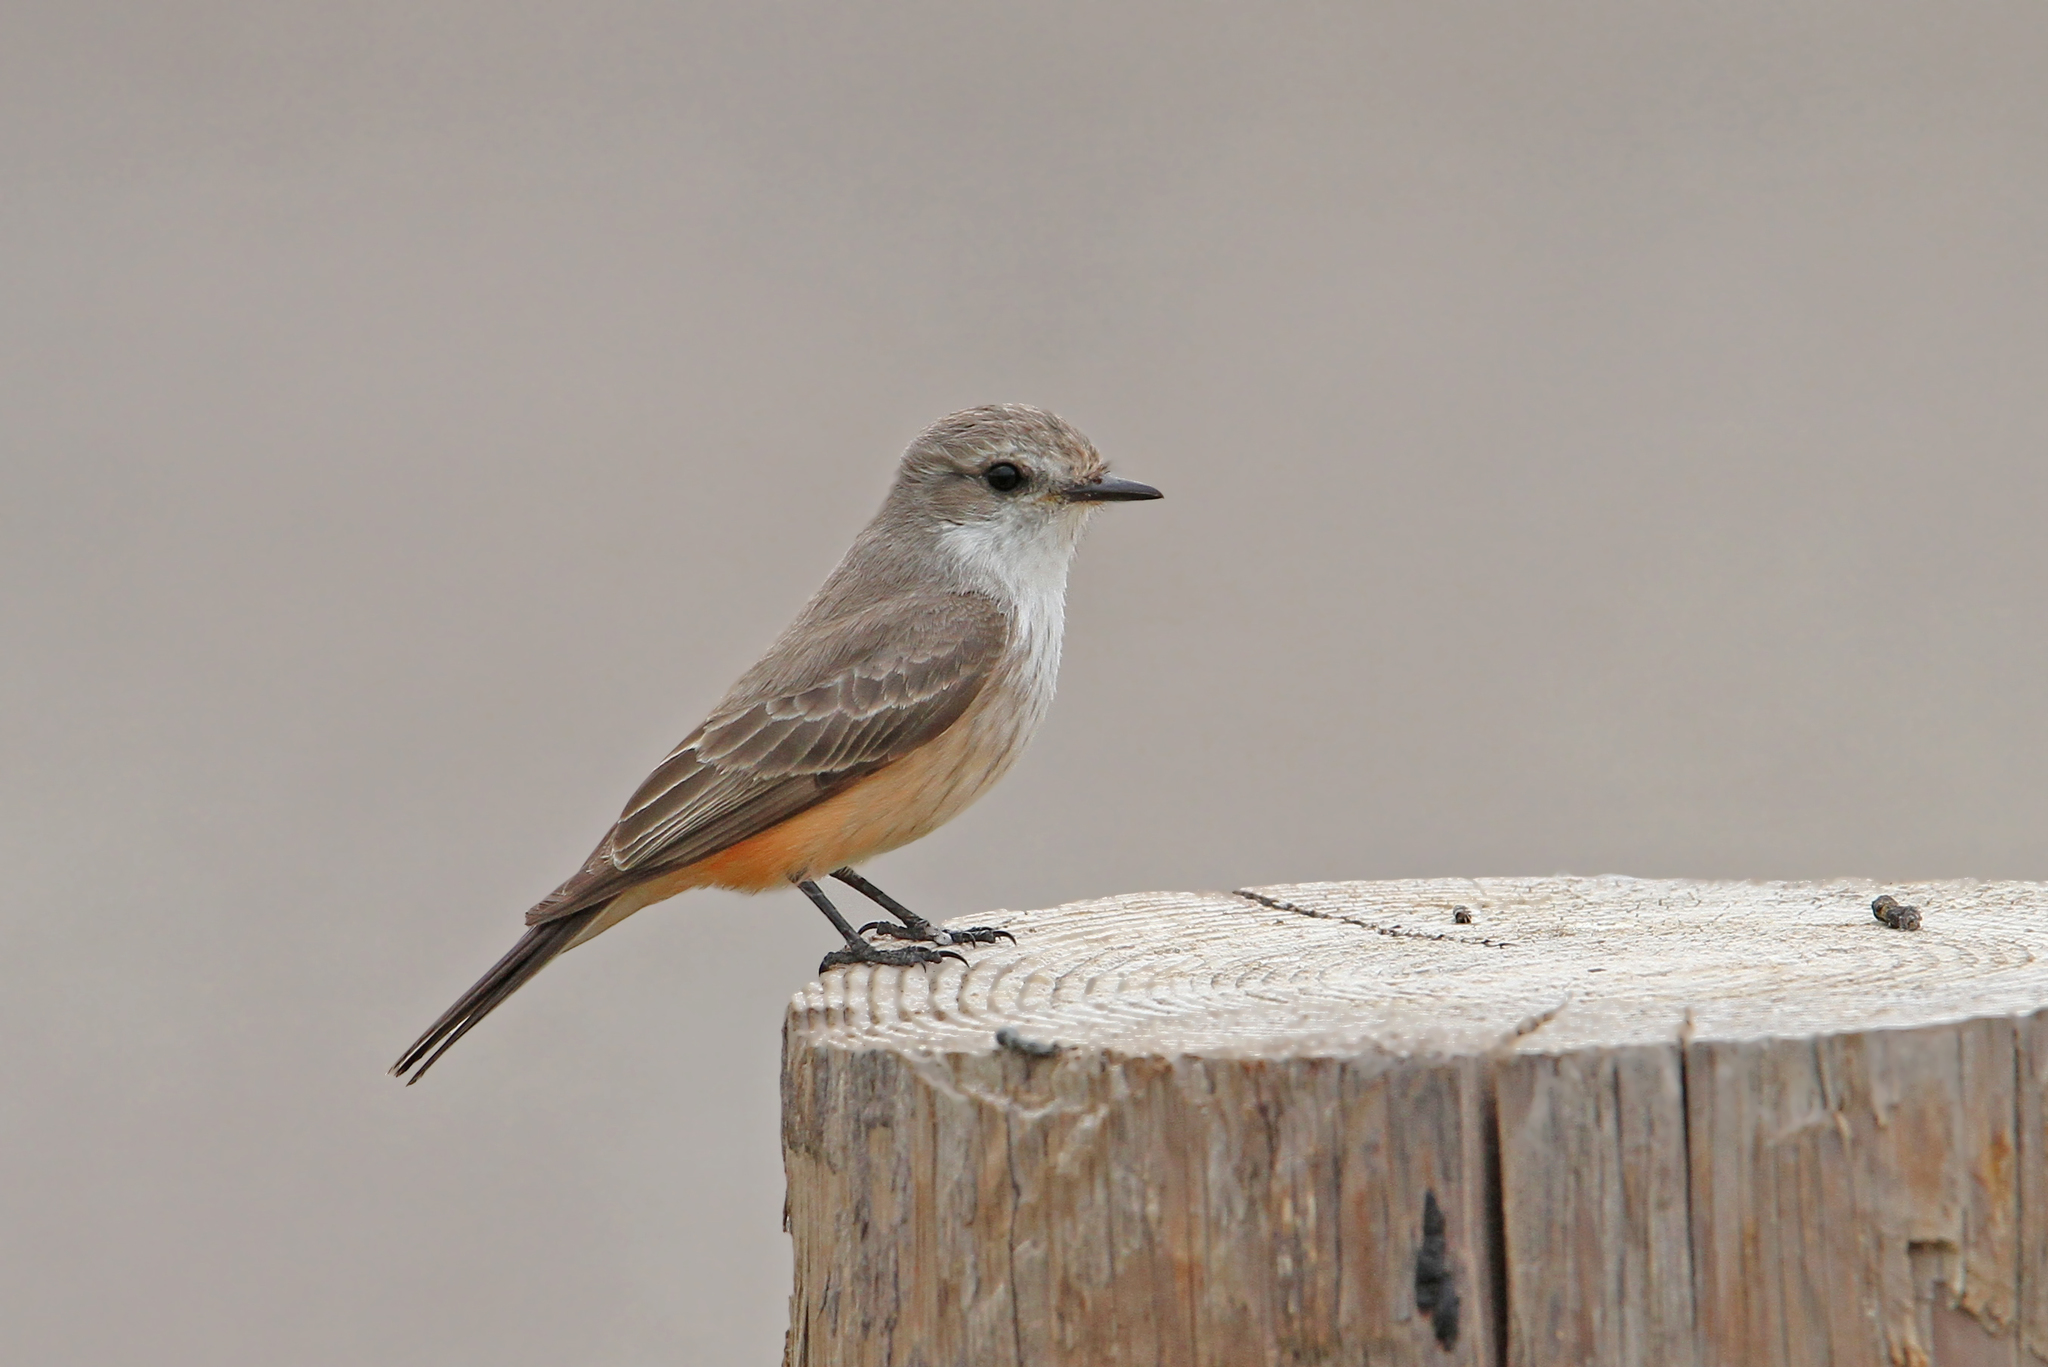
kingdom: Animalia
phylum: Chordata
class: Aves
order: Passeriformes
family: Tyrannidae
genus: Pyrocephalus
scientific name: Pyrocephalus rubinus
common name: Vermilion flycatcher
